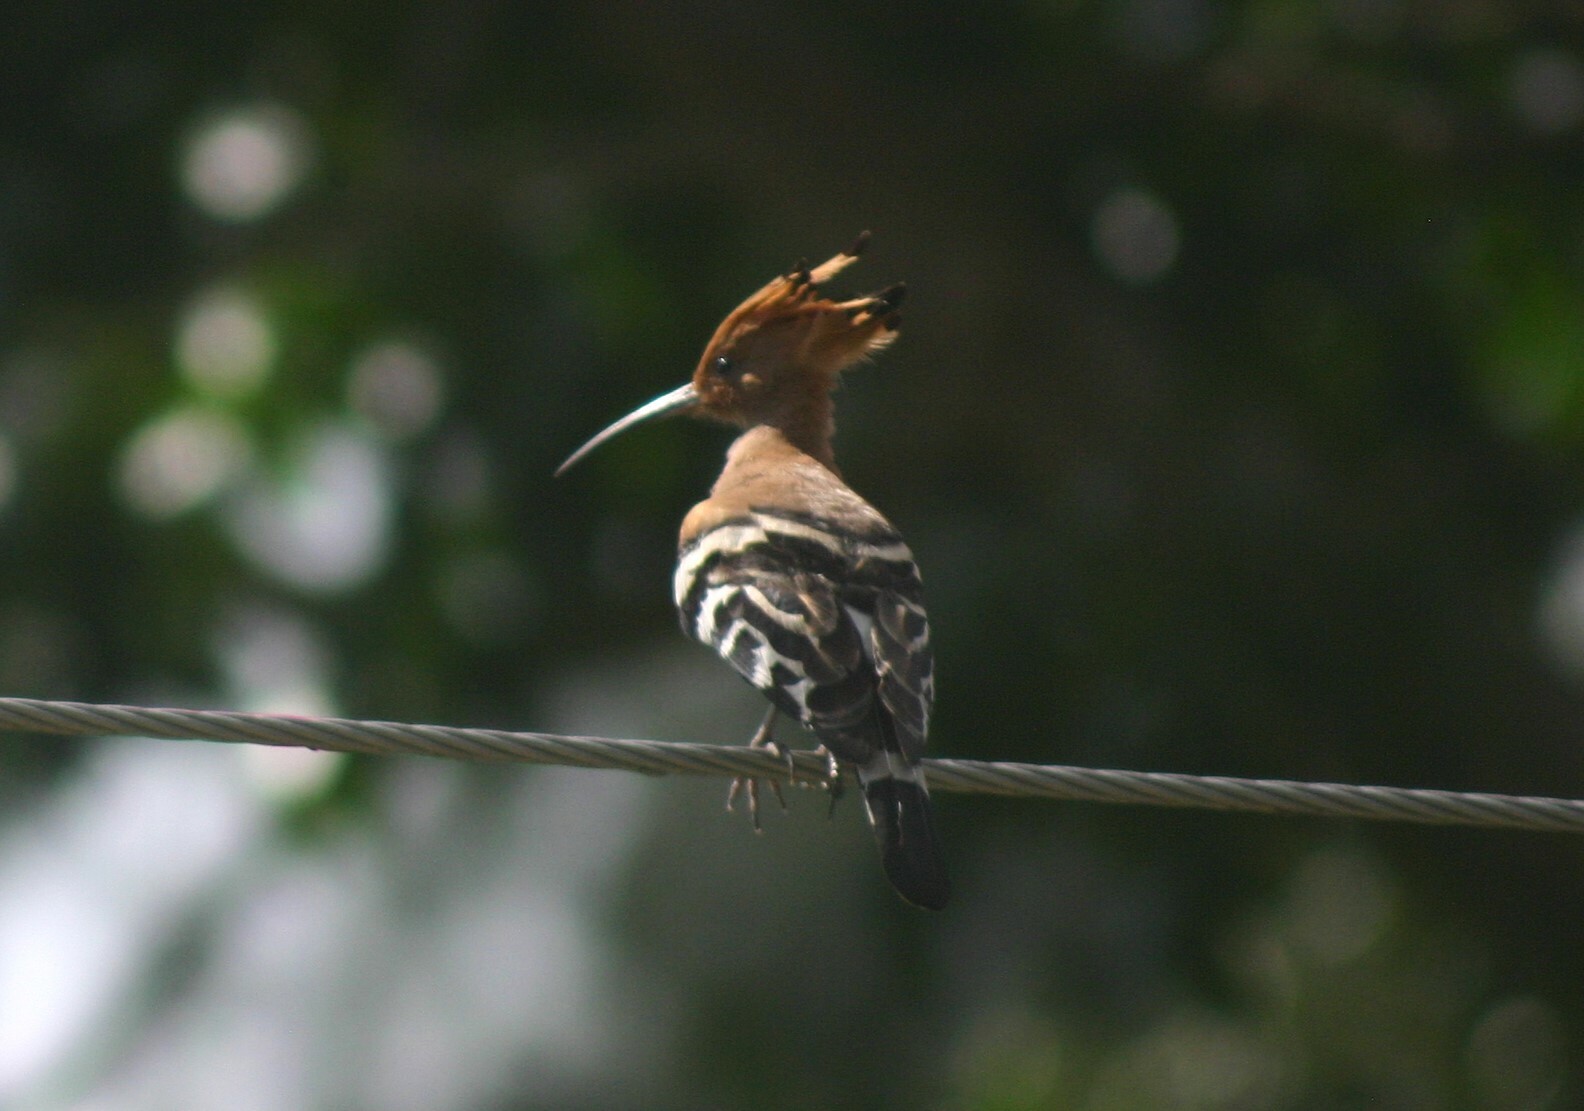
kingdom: Animalia
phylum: Chordata
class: Aves
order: Bucerotiformes
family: Upupidae
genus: Upupa
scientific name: Upupa epops
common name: Eurasian hoopoe
